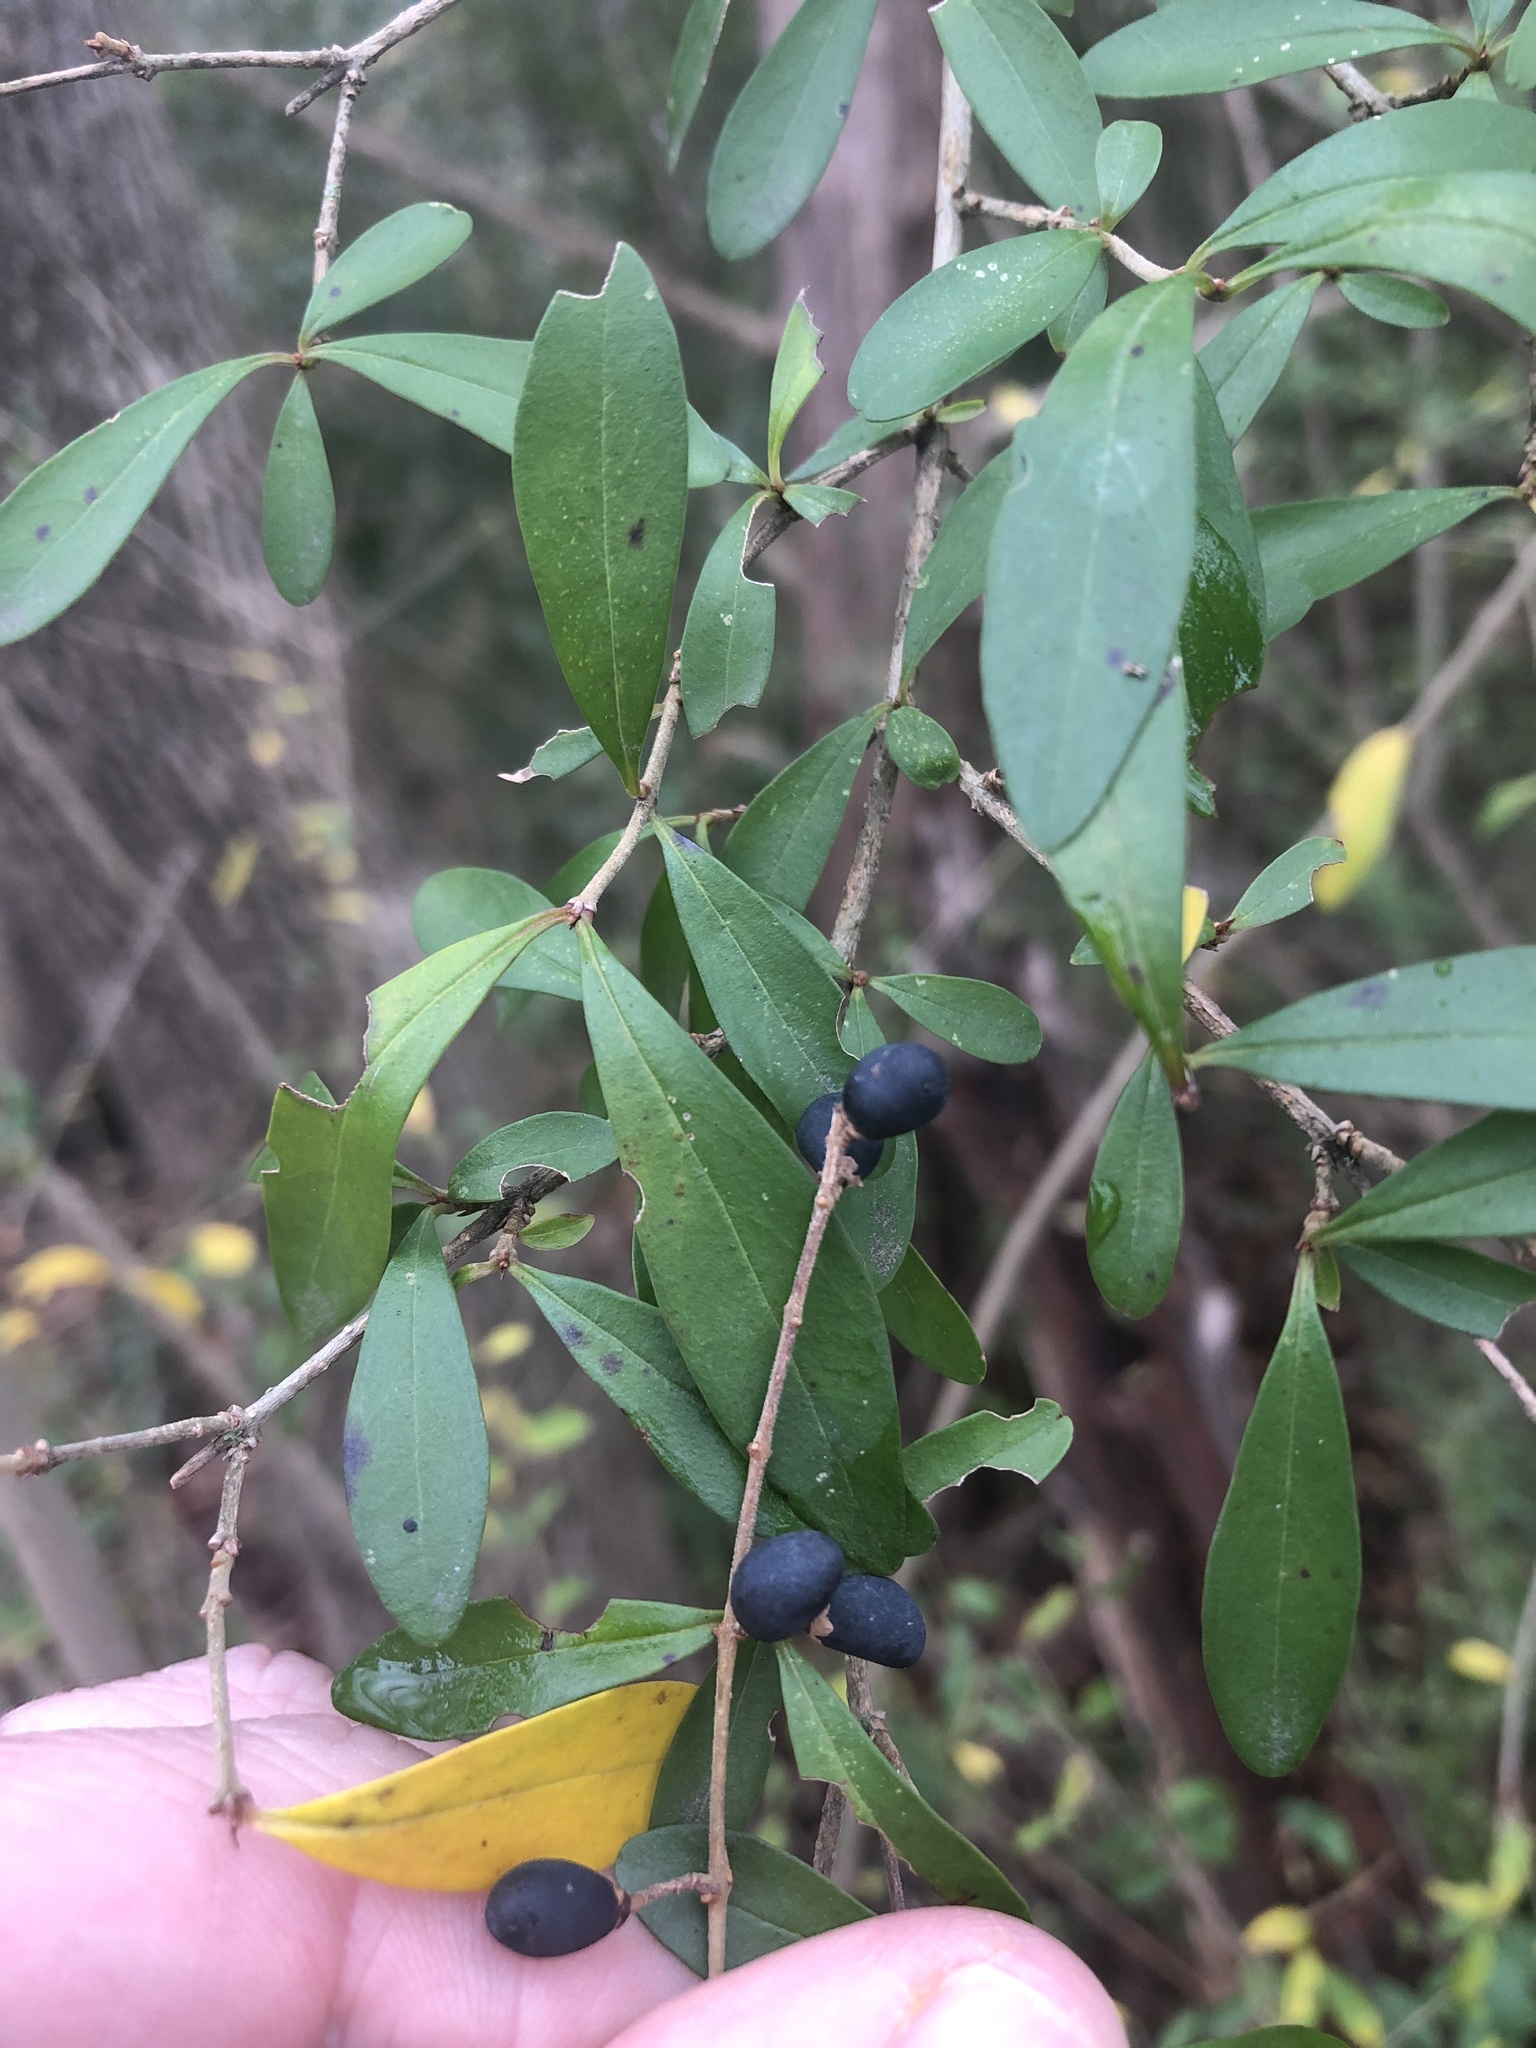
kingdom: Plantae
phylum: Tracheophyta
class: Magnoliopsida
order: Lamiales
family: Oleaceae
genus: Ligustrum
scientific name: Ligustrum quihoui
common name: Waxyleaf privet
